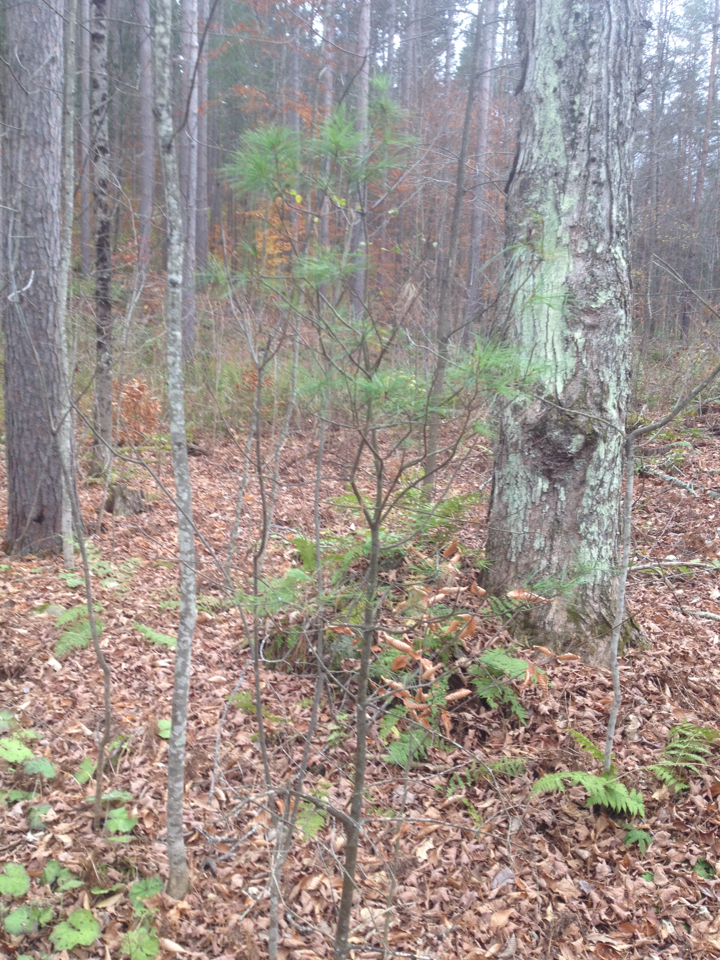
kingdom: Plantae
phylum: Tracheophyta
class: Pinopsida
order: Pinales
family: Pinaceae
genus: Pinus
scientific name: Pinus strobus
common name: Weymouth pine
